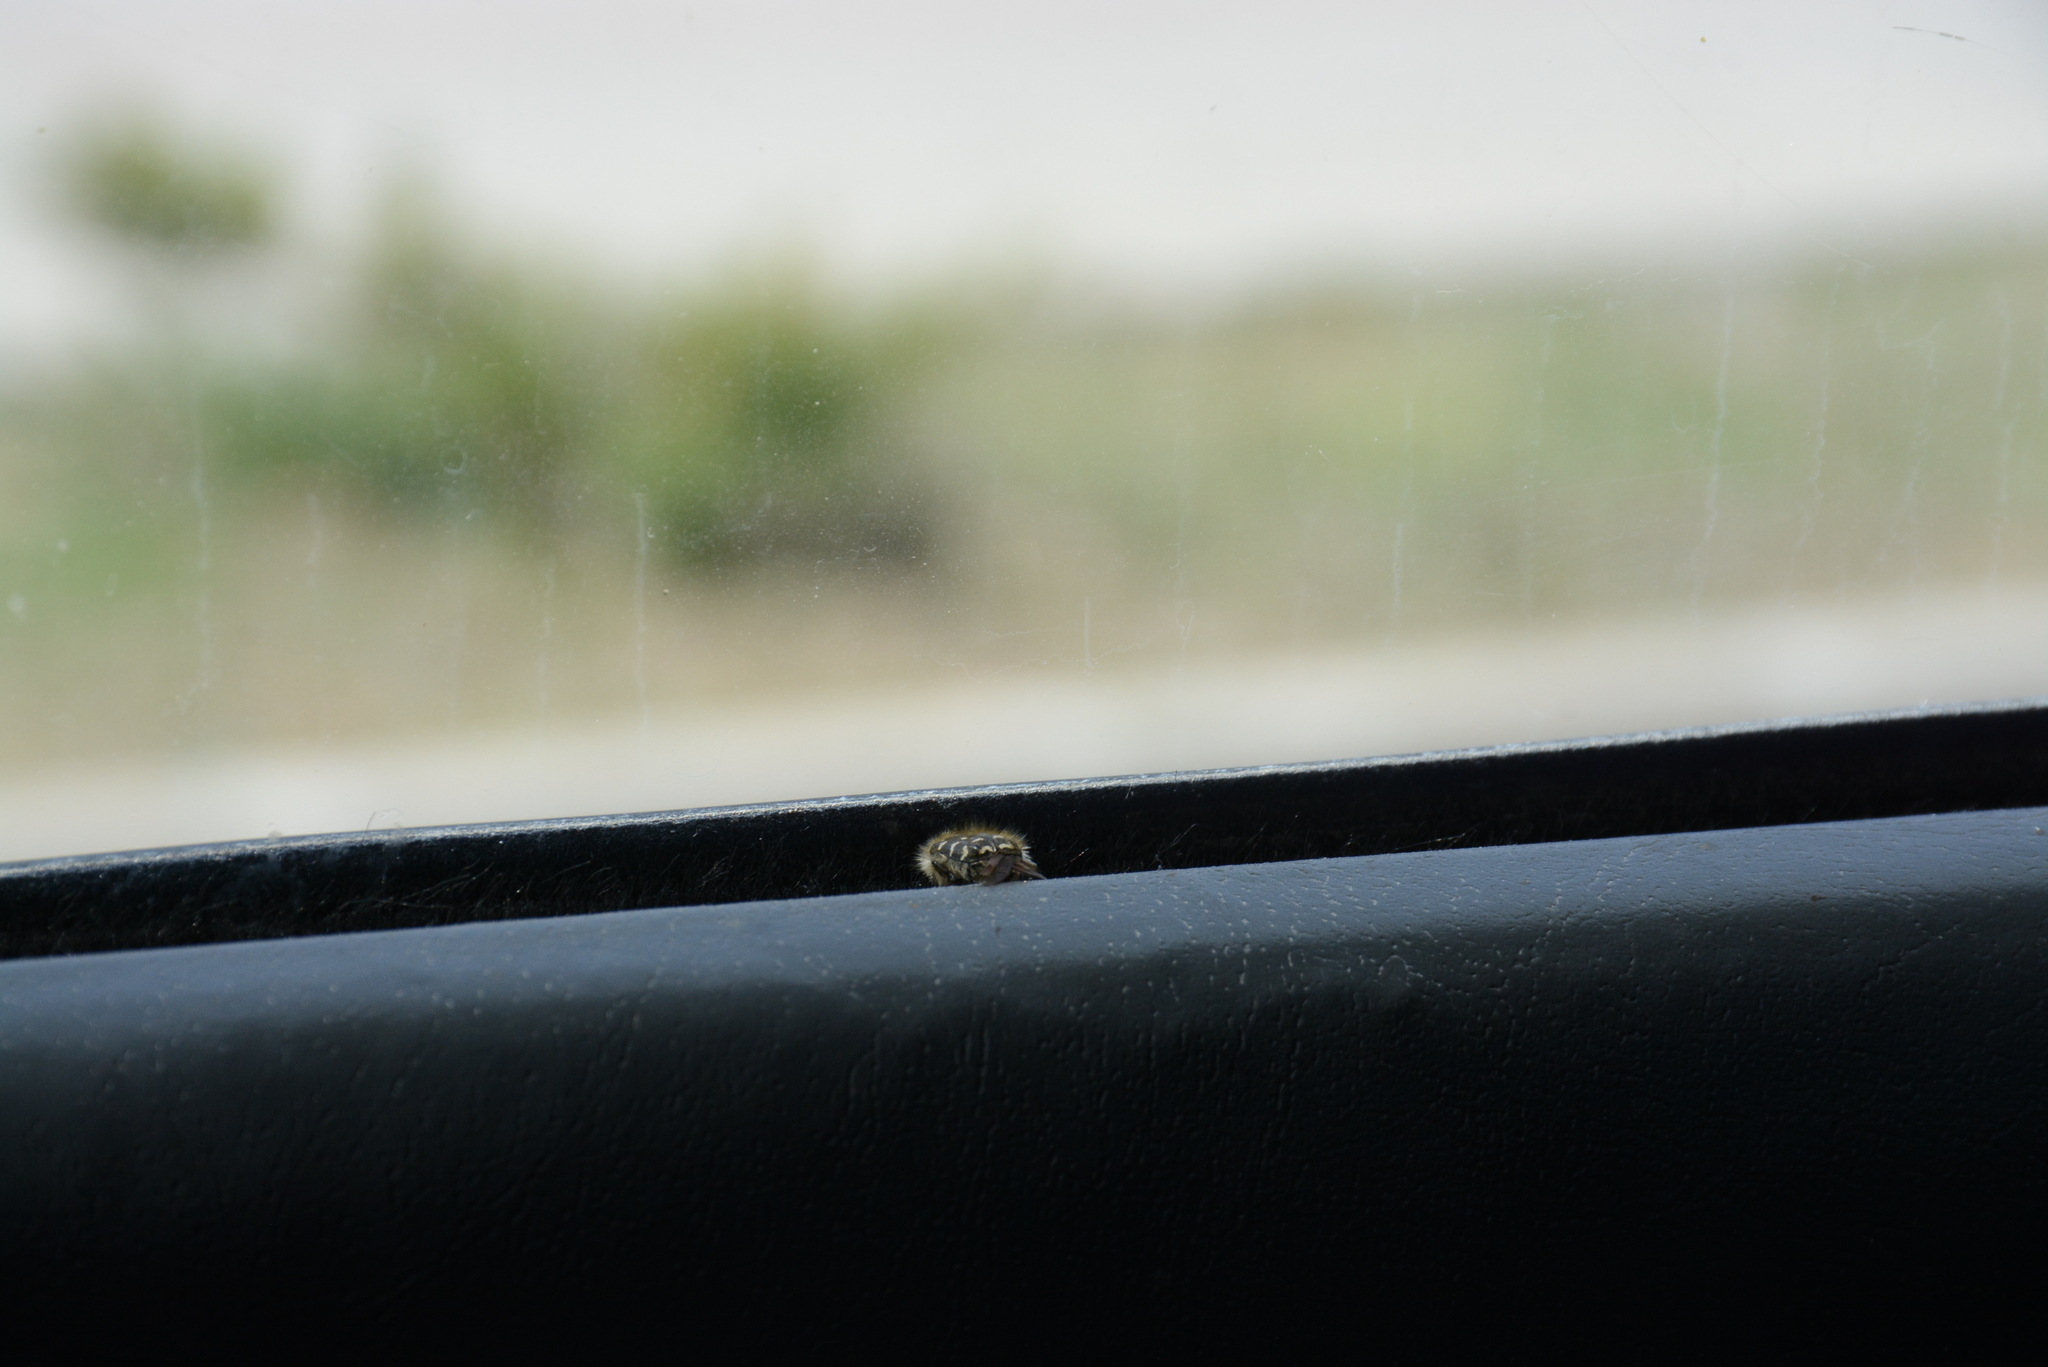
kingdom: Animalia
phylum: Arthropoda
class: Insecta
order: Coleoptera
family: Scarabaeidae
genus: Tropinota
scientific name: Tropinota hirta
